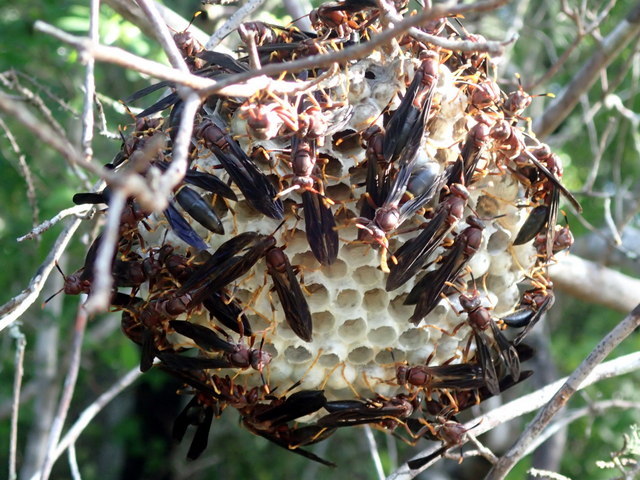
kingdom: Animalia
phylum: Arthropoda
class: Insecta
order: Hymenoptera
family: Eumenidae
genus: Polistes
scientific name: Polistes annularis
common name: Ringed paper wasp
